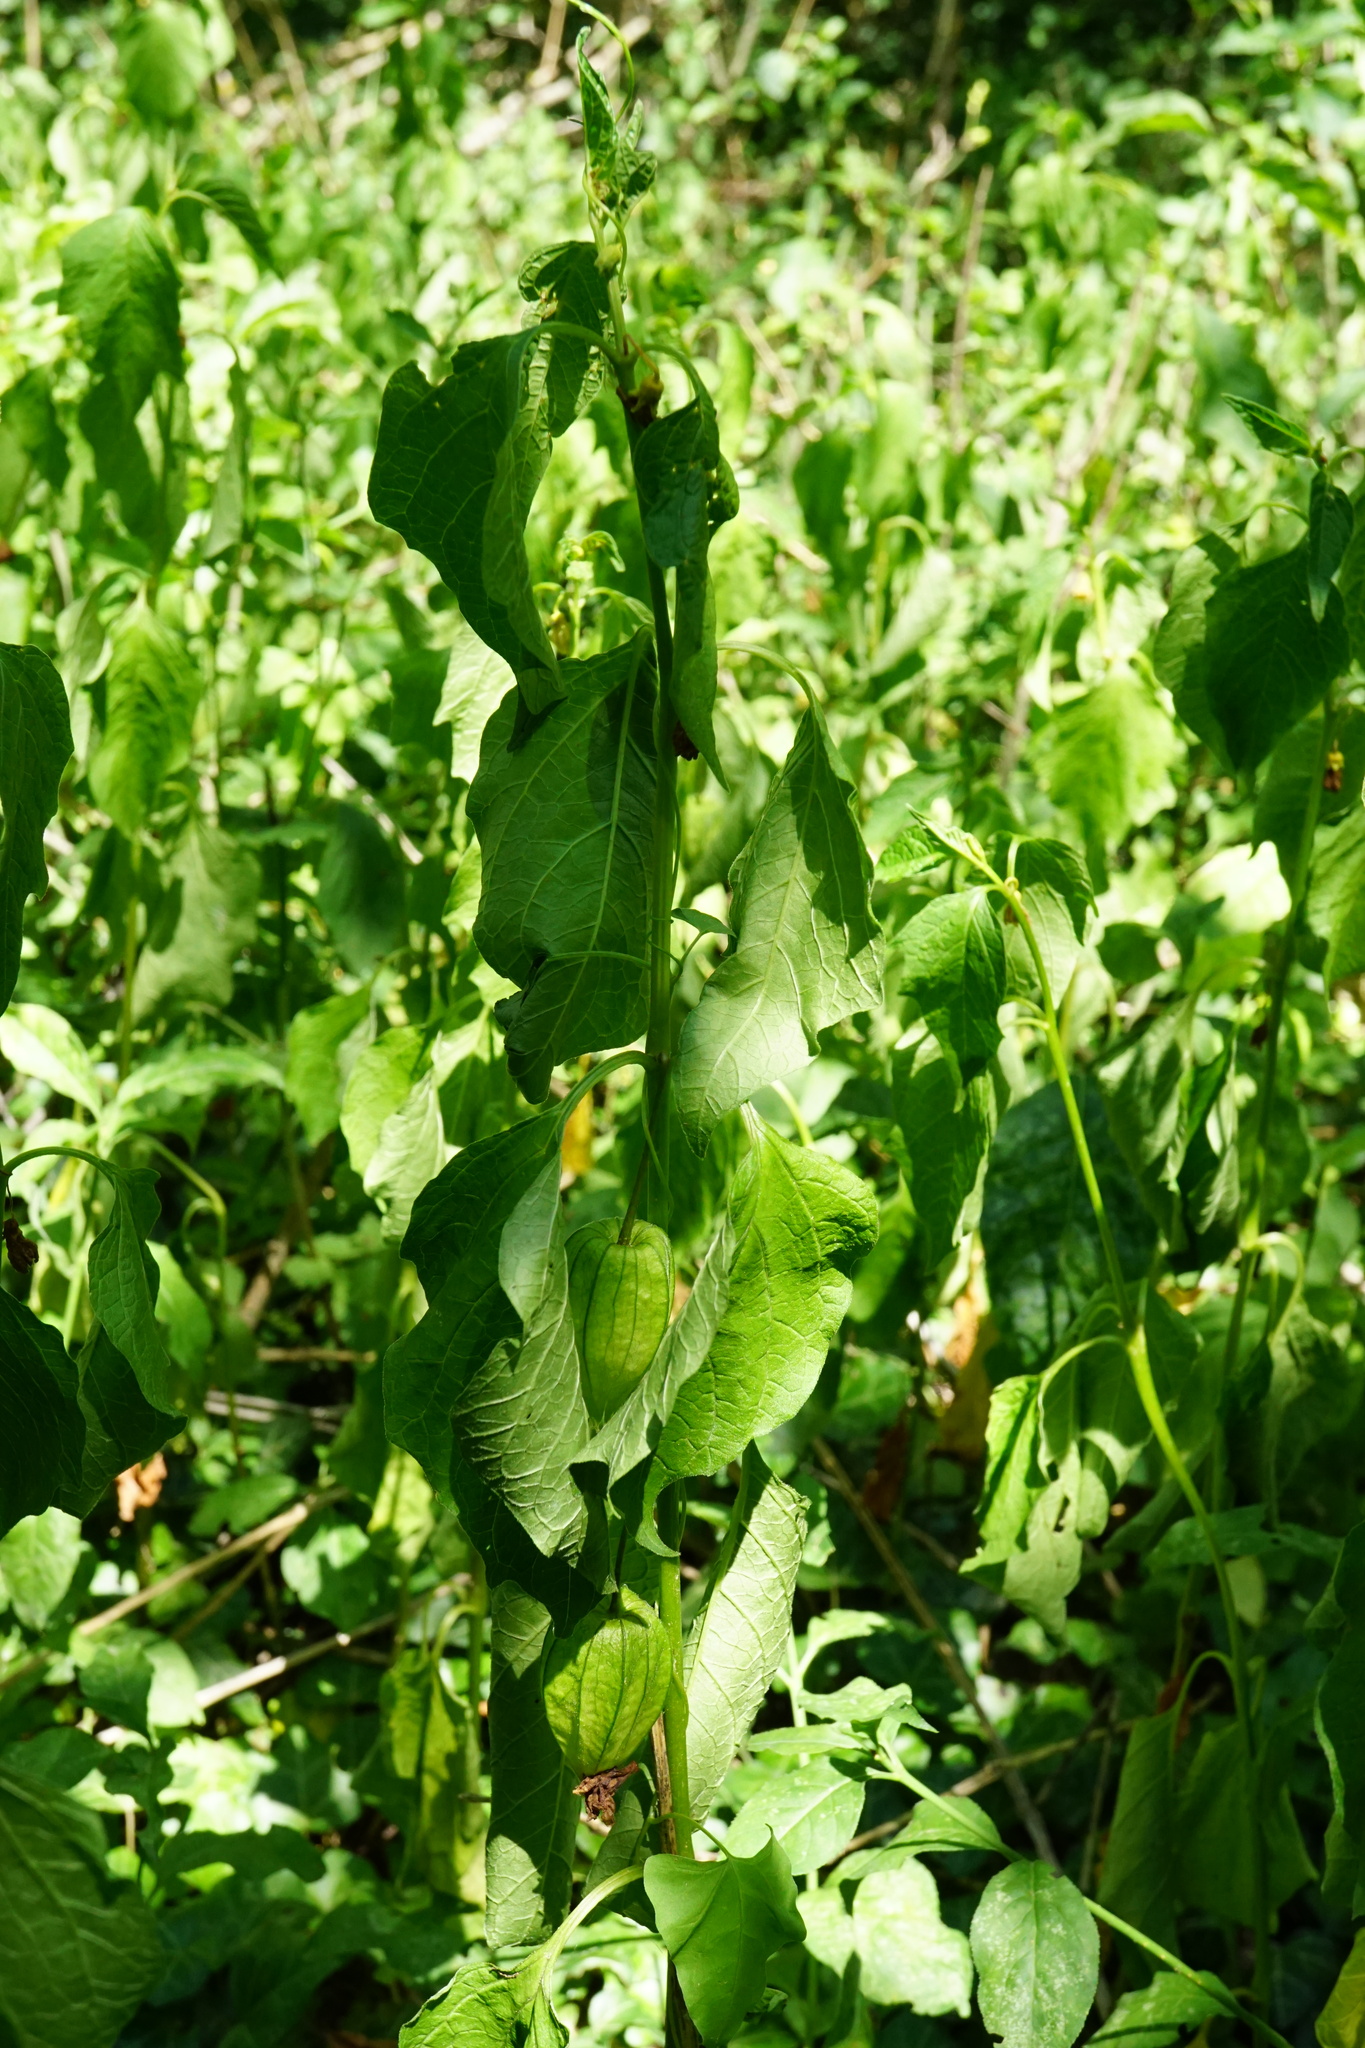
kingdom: Plantae
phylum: Tracheophyta
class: Magnoliopsida
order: Solanales
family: Solanaceae
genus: Alkekengi
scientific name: Alkekengi officinarum
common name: Japanese-lantern
